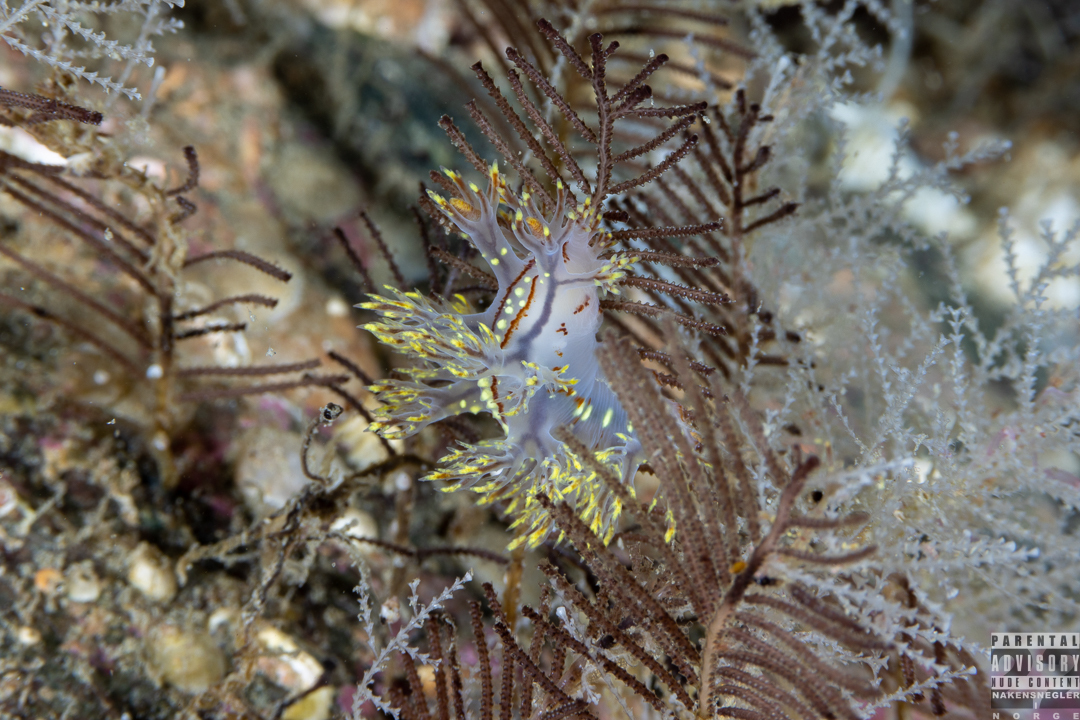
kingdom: Animalia
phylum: Mollusca
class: Gastropoda
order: Nudibranchia
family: Dendronotidae
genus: Dendronotus
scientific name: Dendronotus yrjargul
